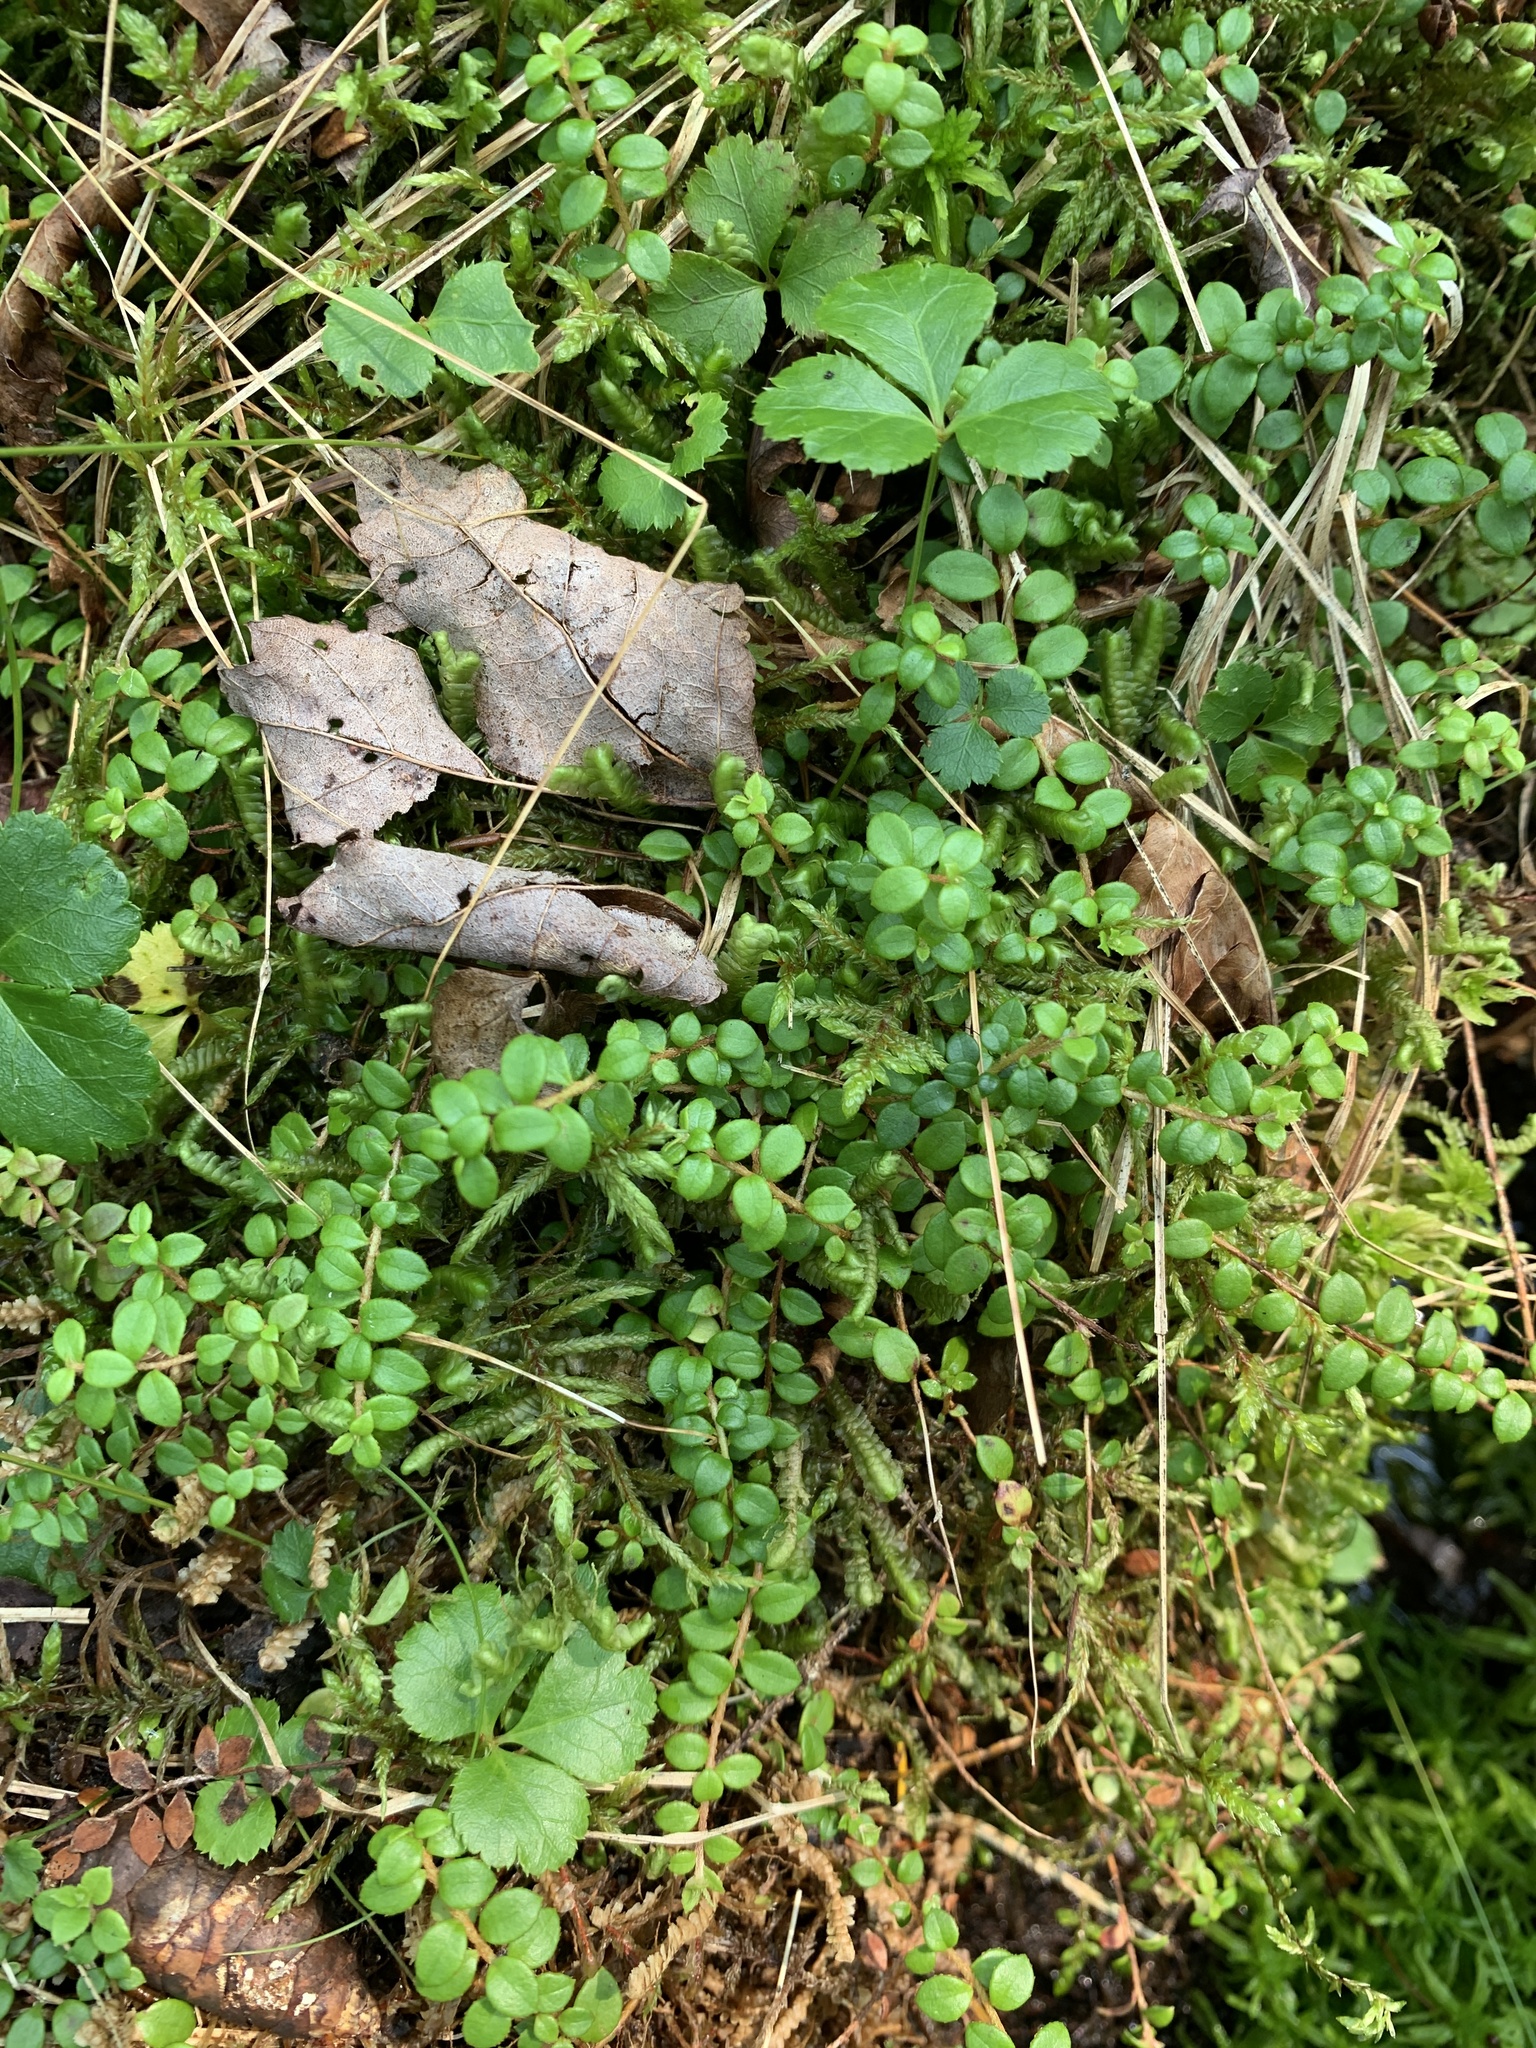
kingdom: Plantae
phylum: Tracheophyta
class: Magnoliopsida
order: Ericales
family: Ericaceae
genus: Gaultheria
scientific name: Gaultheria hispidula
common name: Cancer wintergreen
